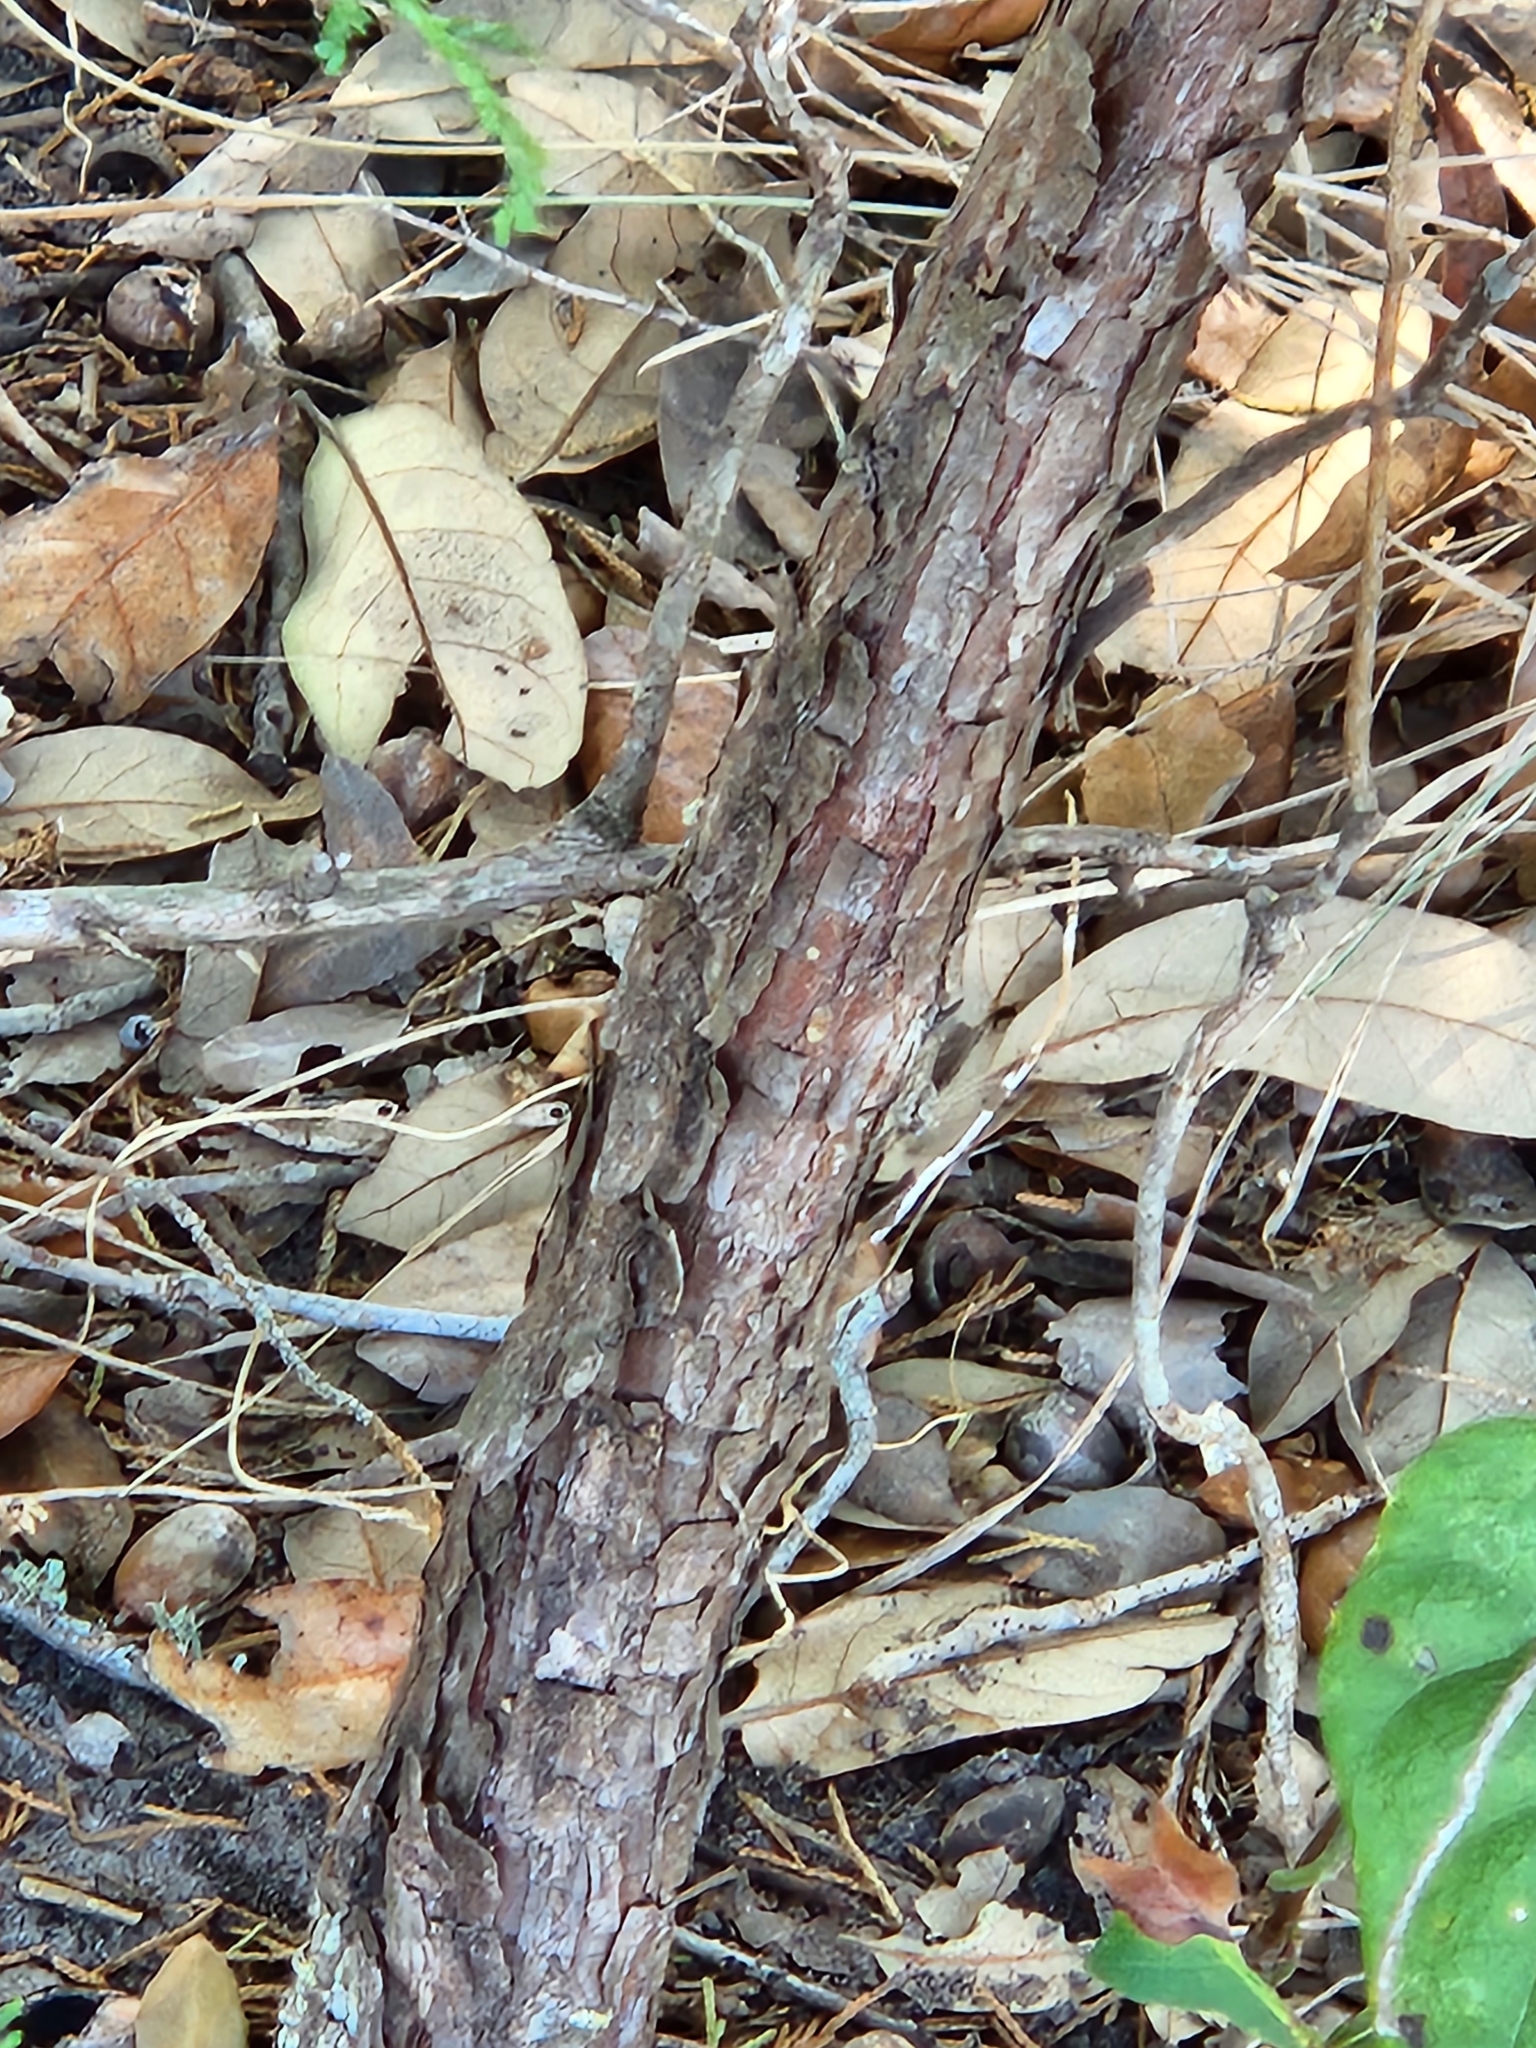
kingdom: Plantae
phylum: Tracheophyta
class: Pinopsida
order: Pinales
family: Cupressaceae
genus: Juniperus
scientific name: Juniperus virginiana
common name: Red juniper
